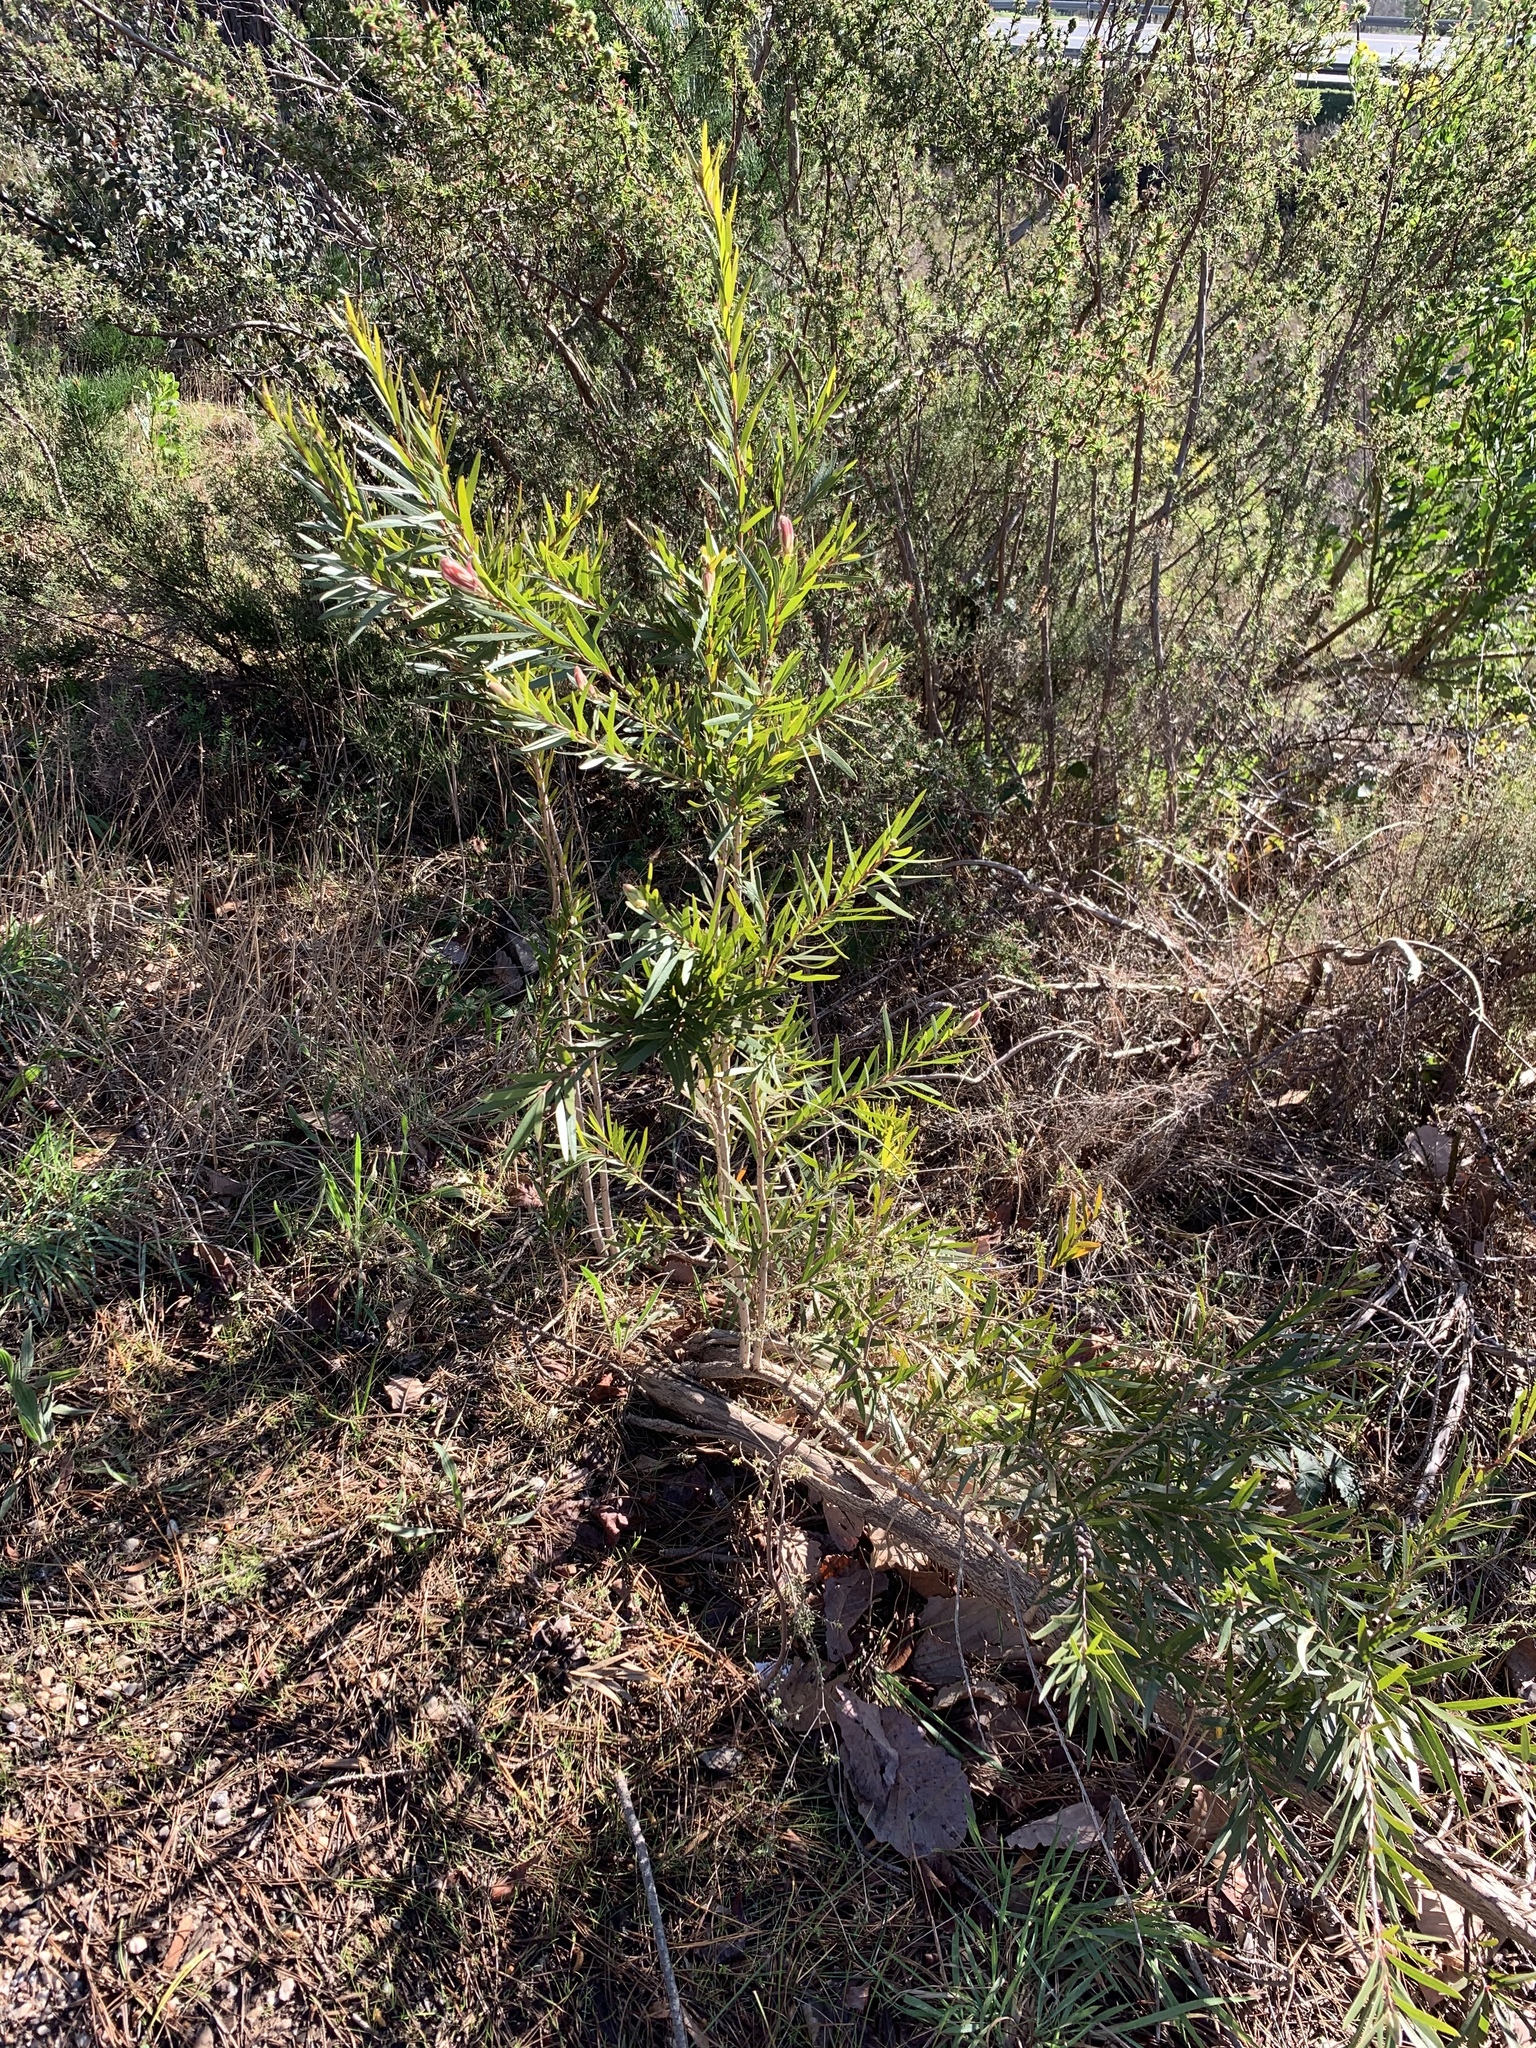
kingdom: Plantae
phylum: Tracheophyta
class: Magnoliopsida
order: Myrtales
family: Myrtaceae
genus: Callistemon
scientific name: Callistemon viminalis
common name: Drooping bottlebrush
